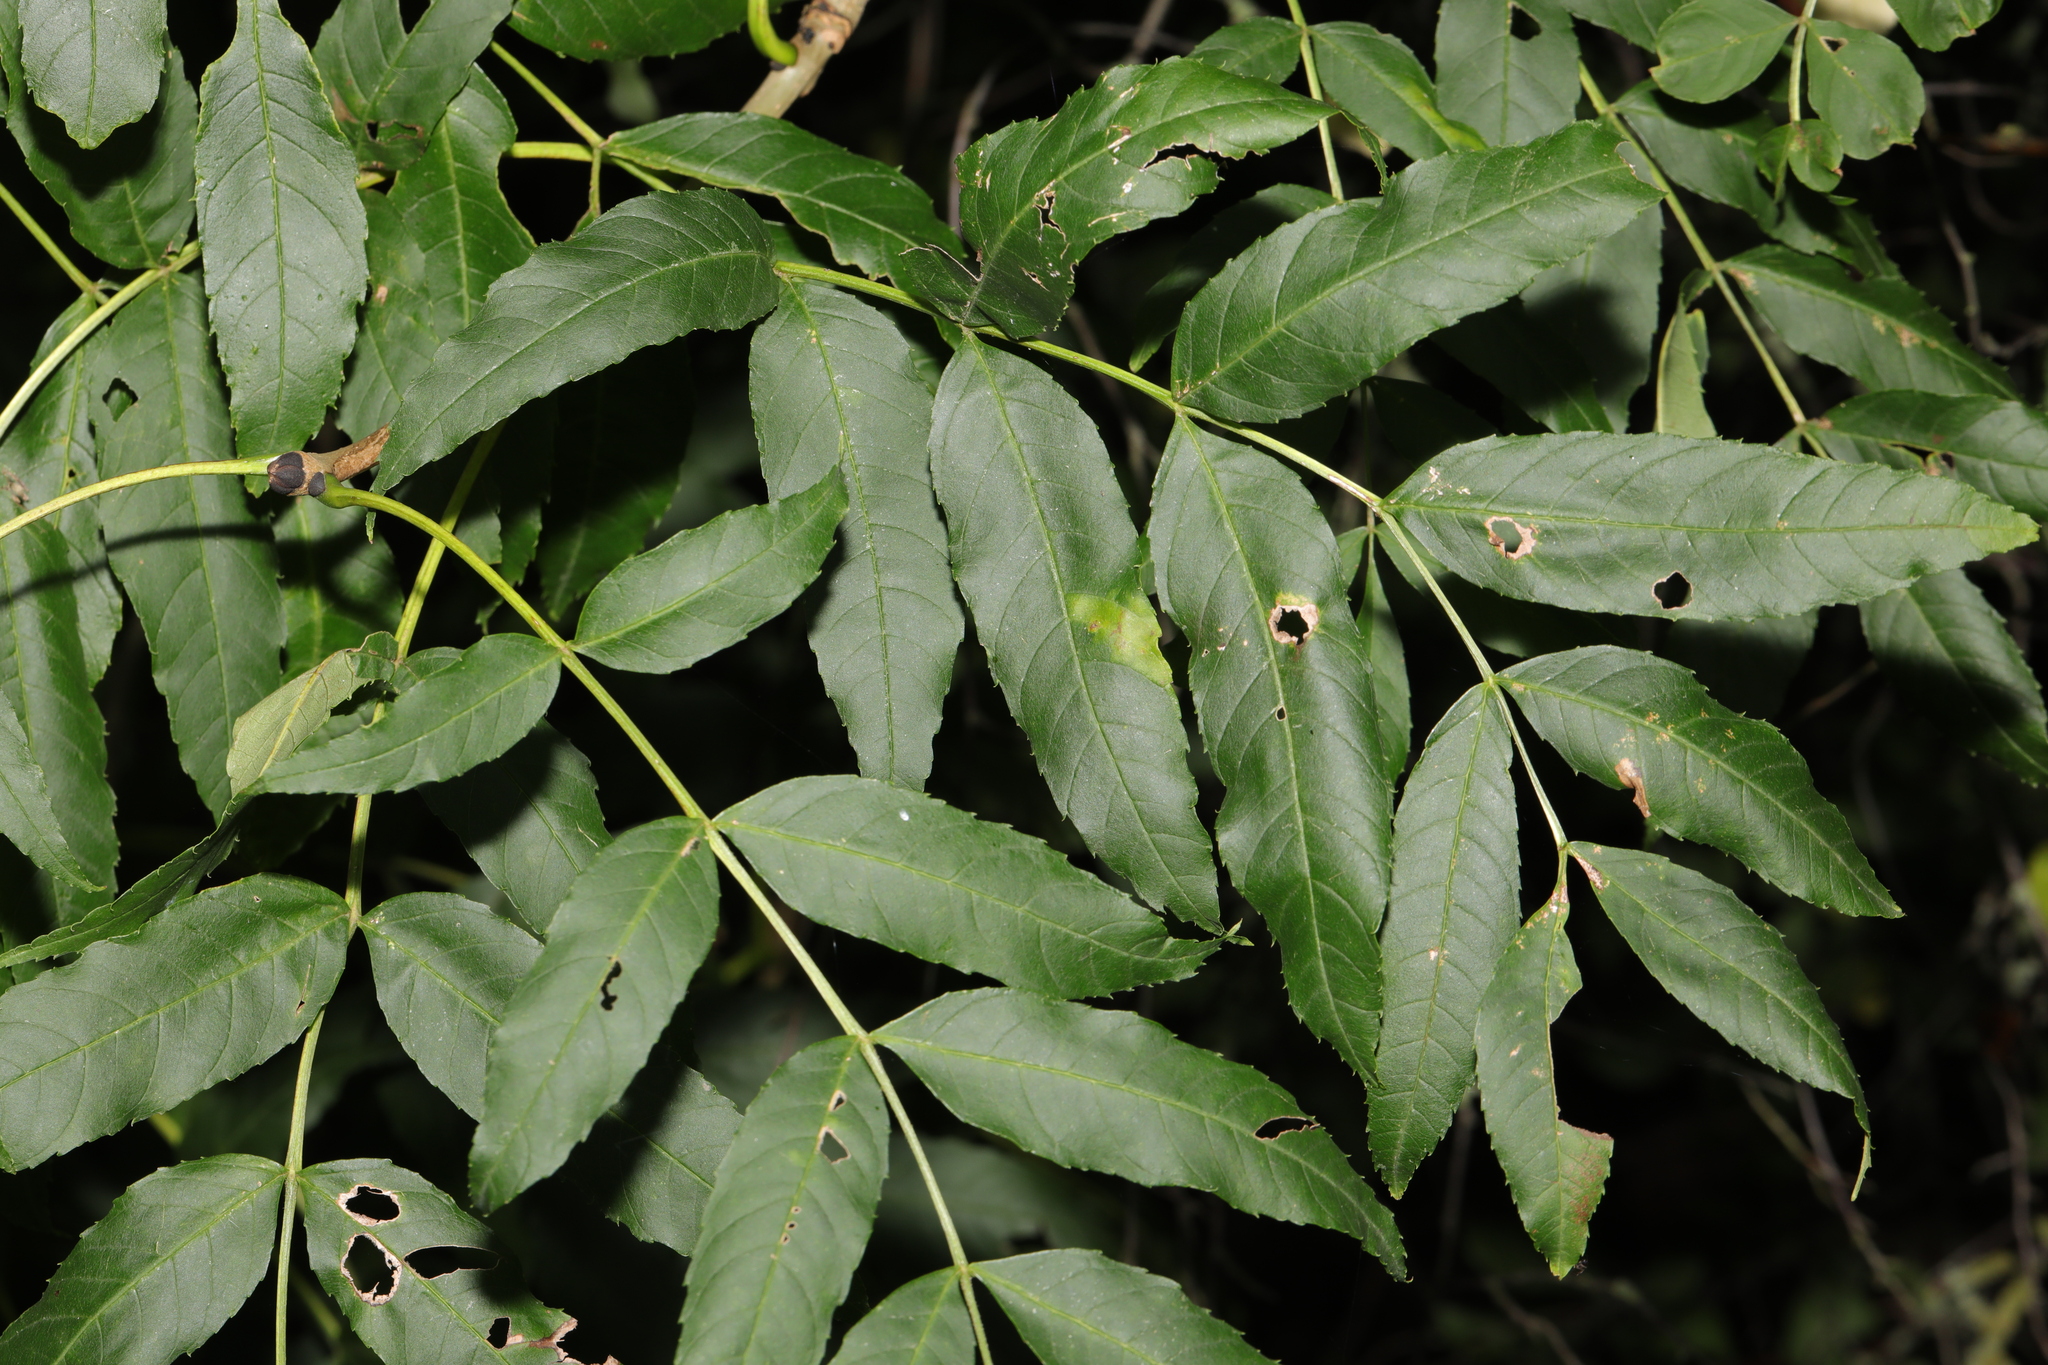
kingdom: Plantae
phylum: Tracheophyta
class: Magnoliopsida
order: Lamiales
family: Oleaceae
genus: Fraxinus
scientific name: Fraxinus excelsior
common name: European ash
